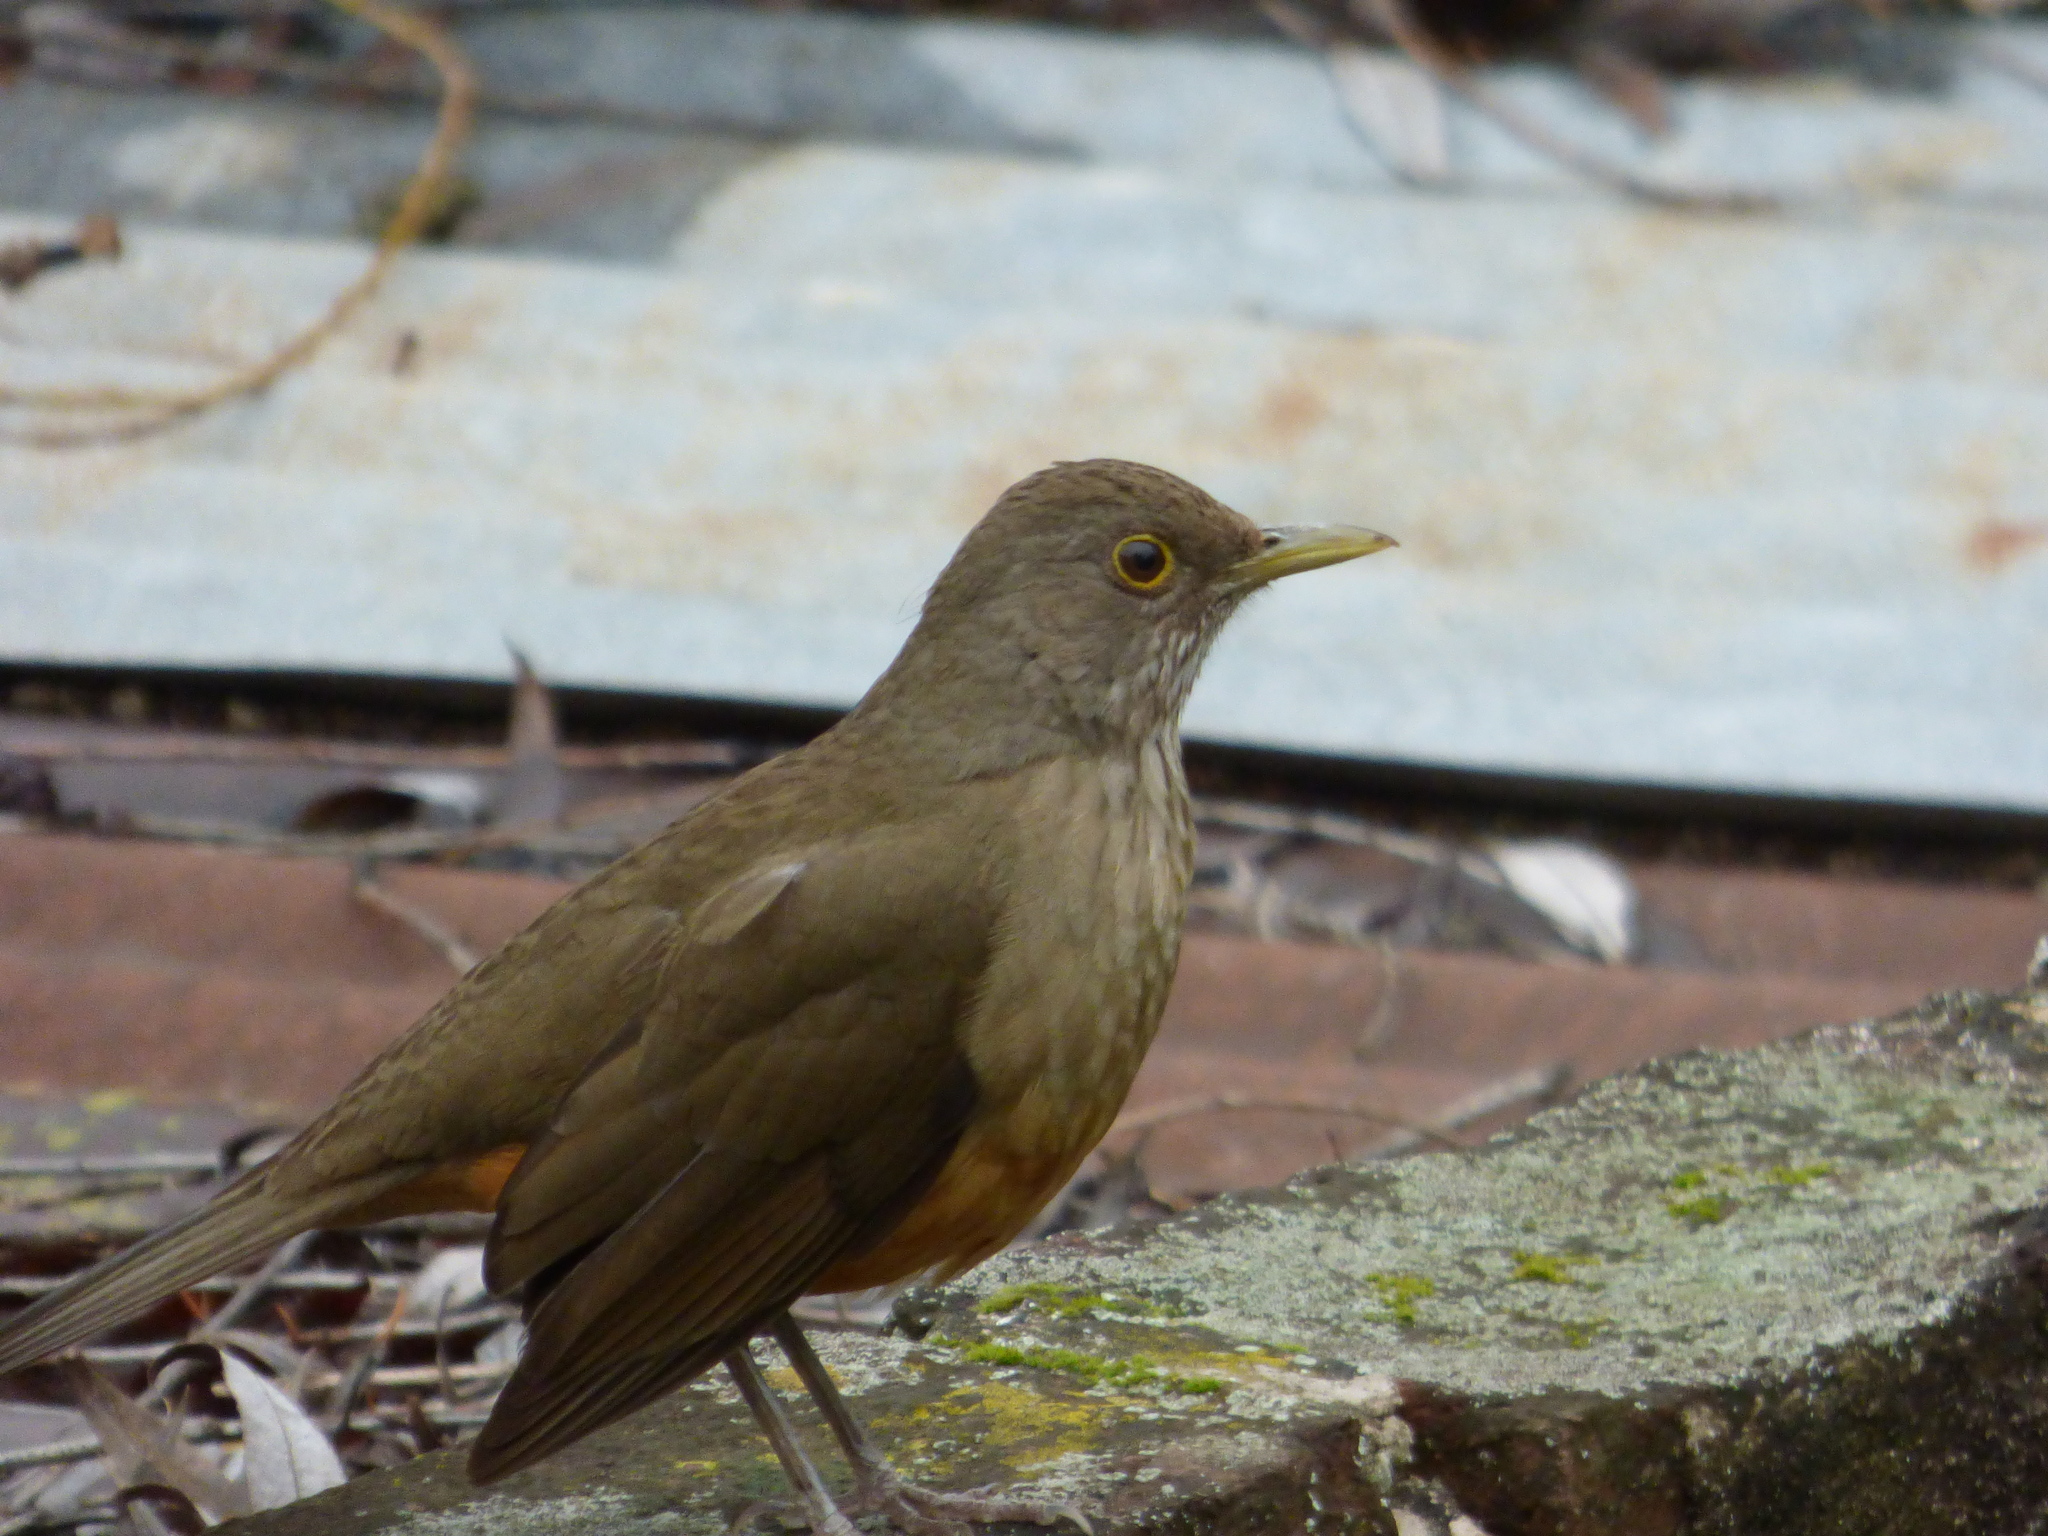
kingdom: Animalia
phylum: Chordata
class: Aves
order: Passeriformes
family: Turdidae
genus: Turdus
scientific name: Turdus rufiventris
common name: Rufous-bellied thrush
